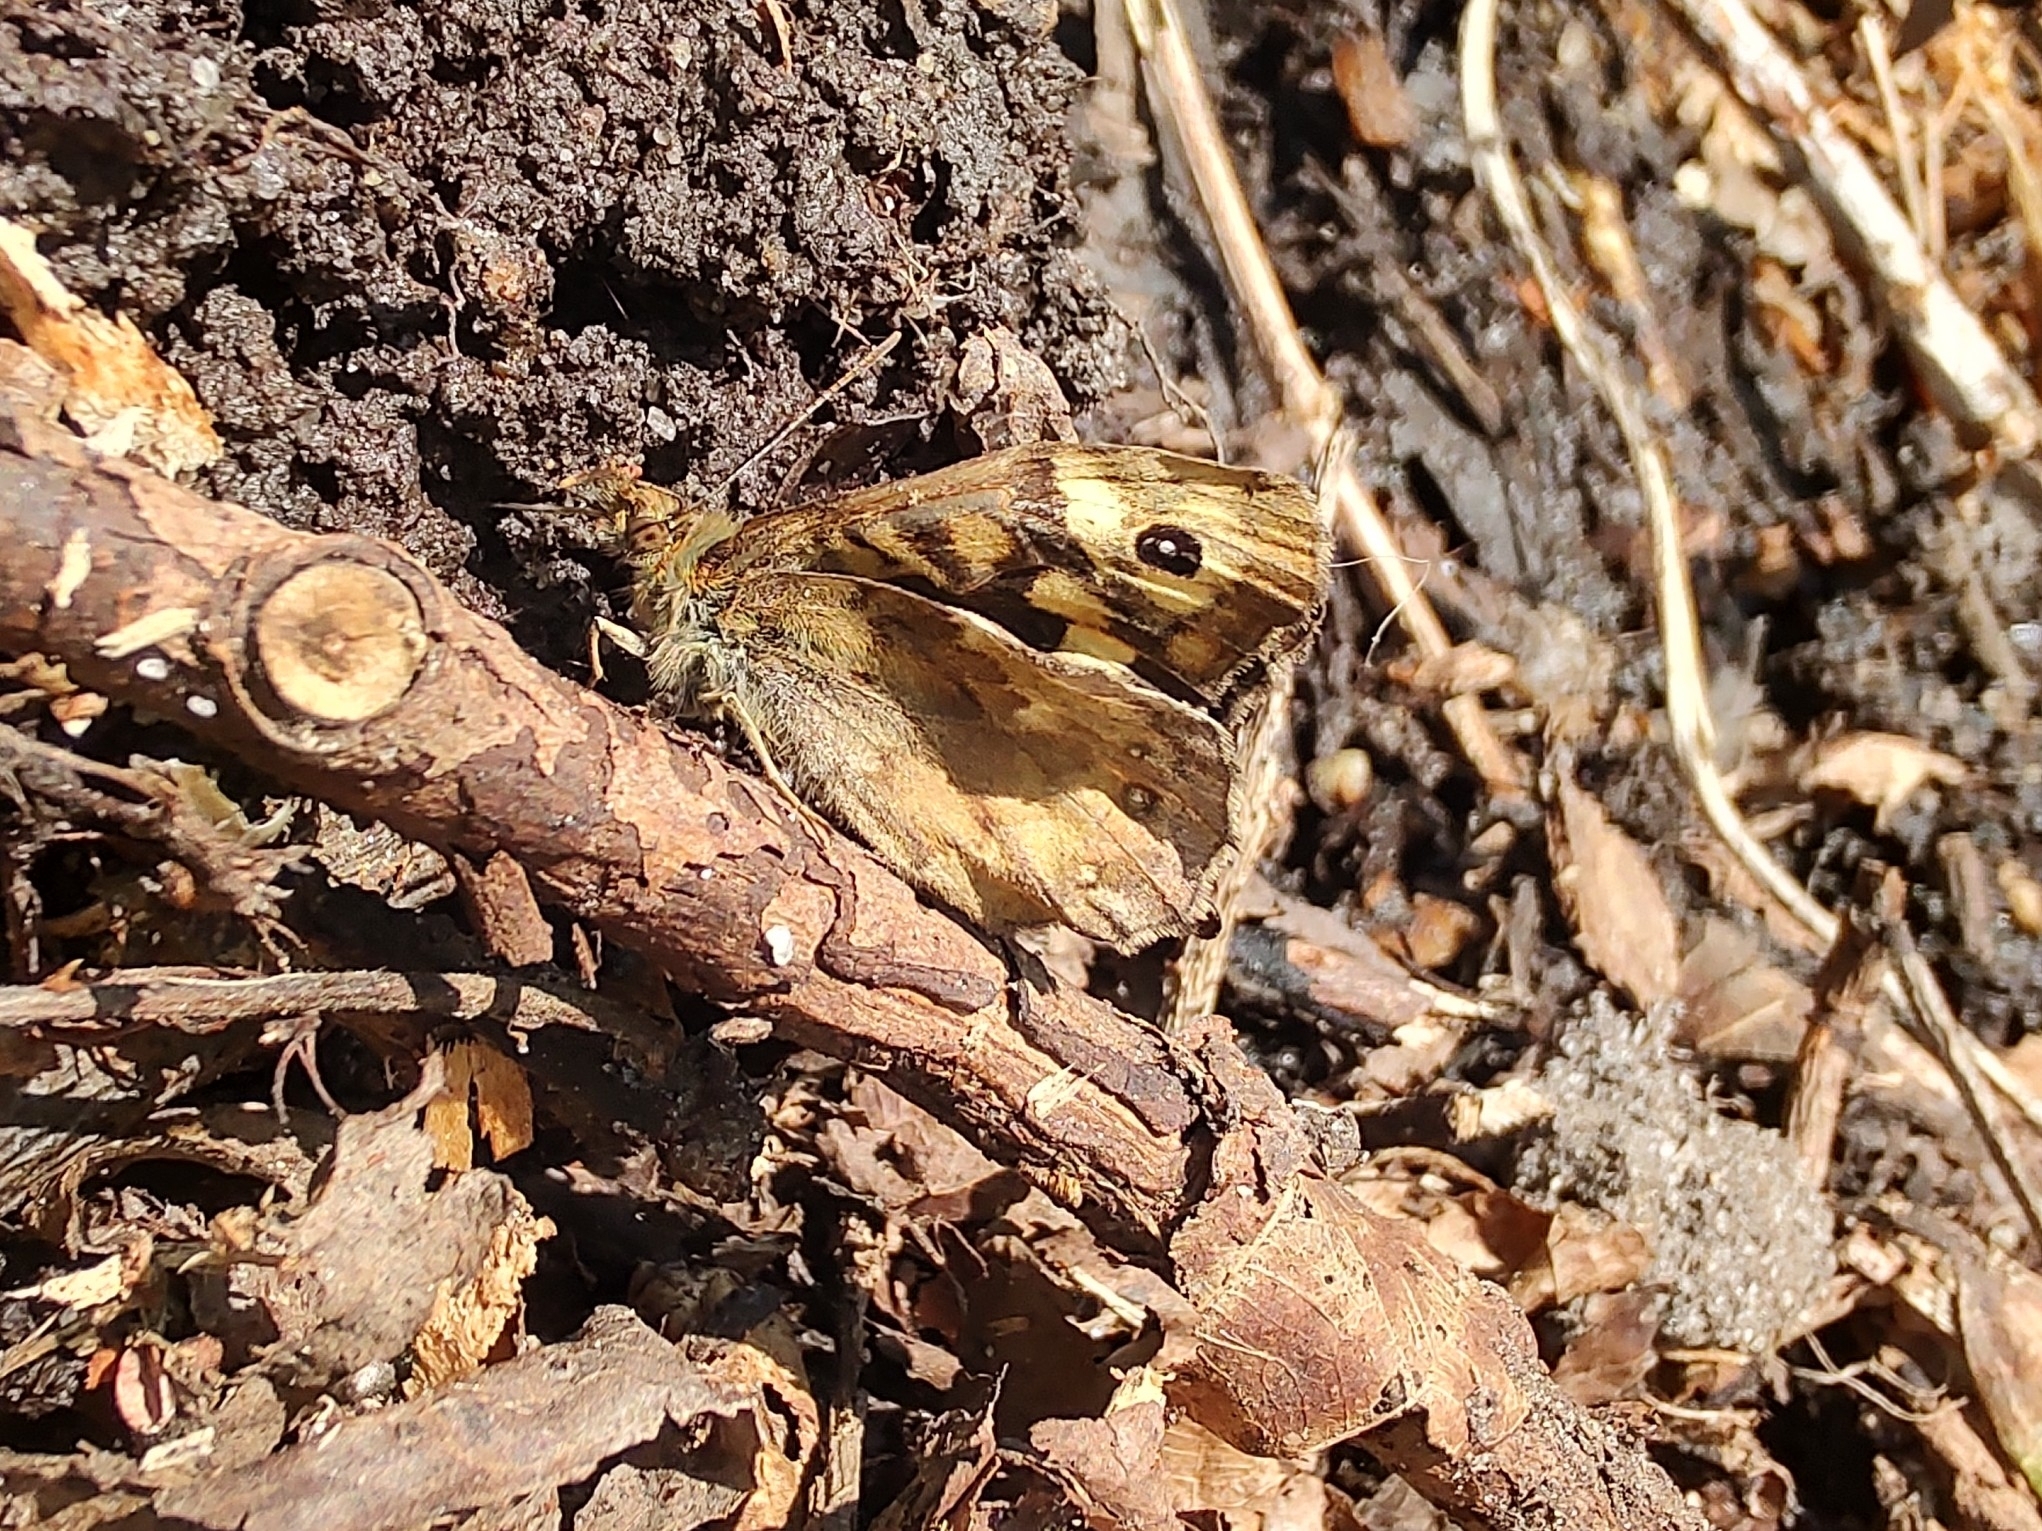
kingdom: Animalia
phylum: Arthropoda
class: Insecta
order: Lepidoptera
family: Nymphalidae
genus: Pararge
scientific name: Pararge aegeria
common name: Speckled wood
